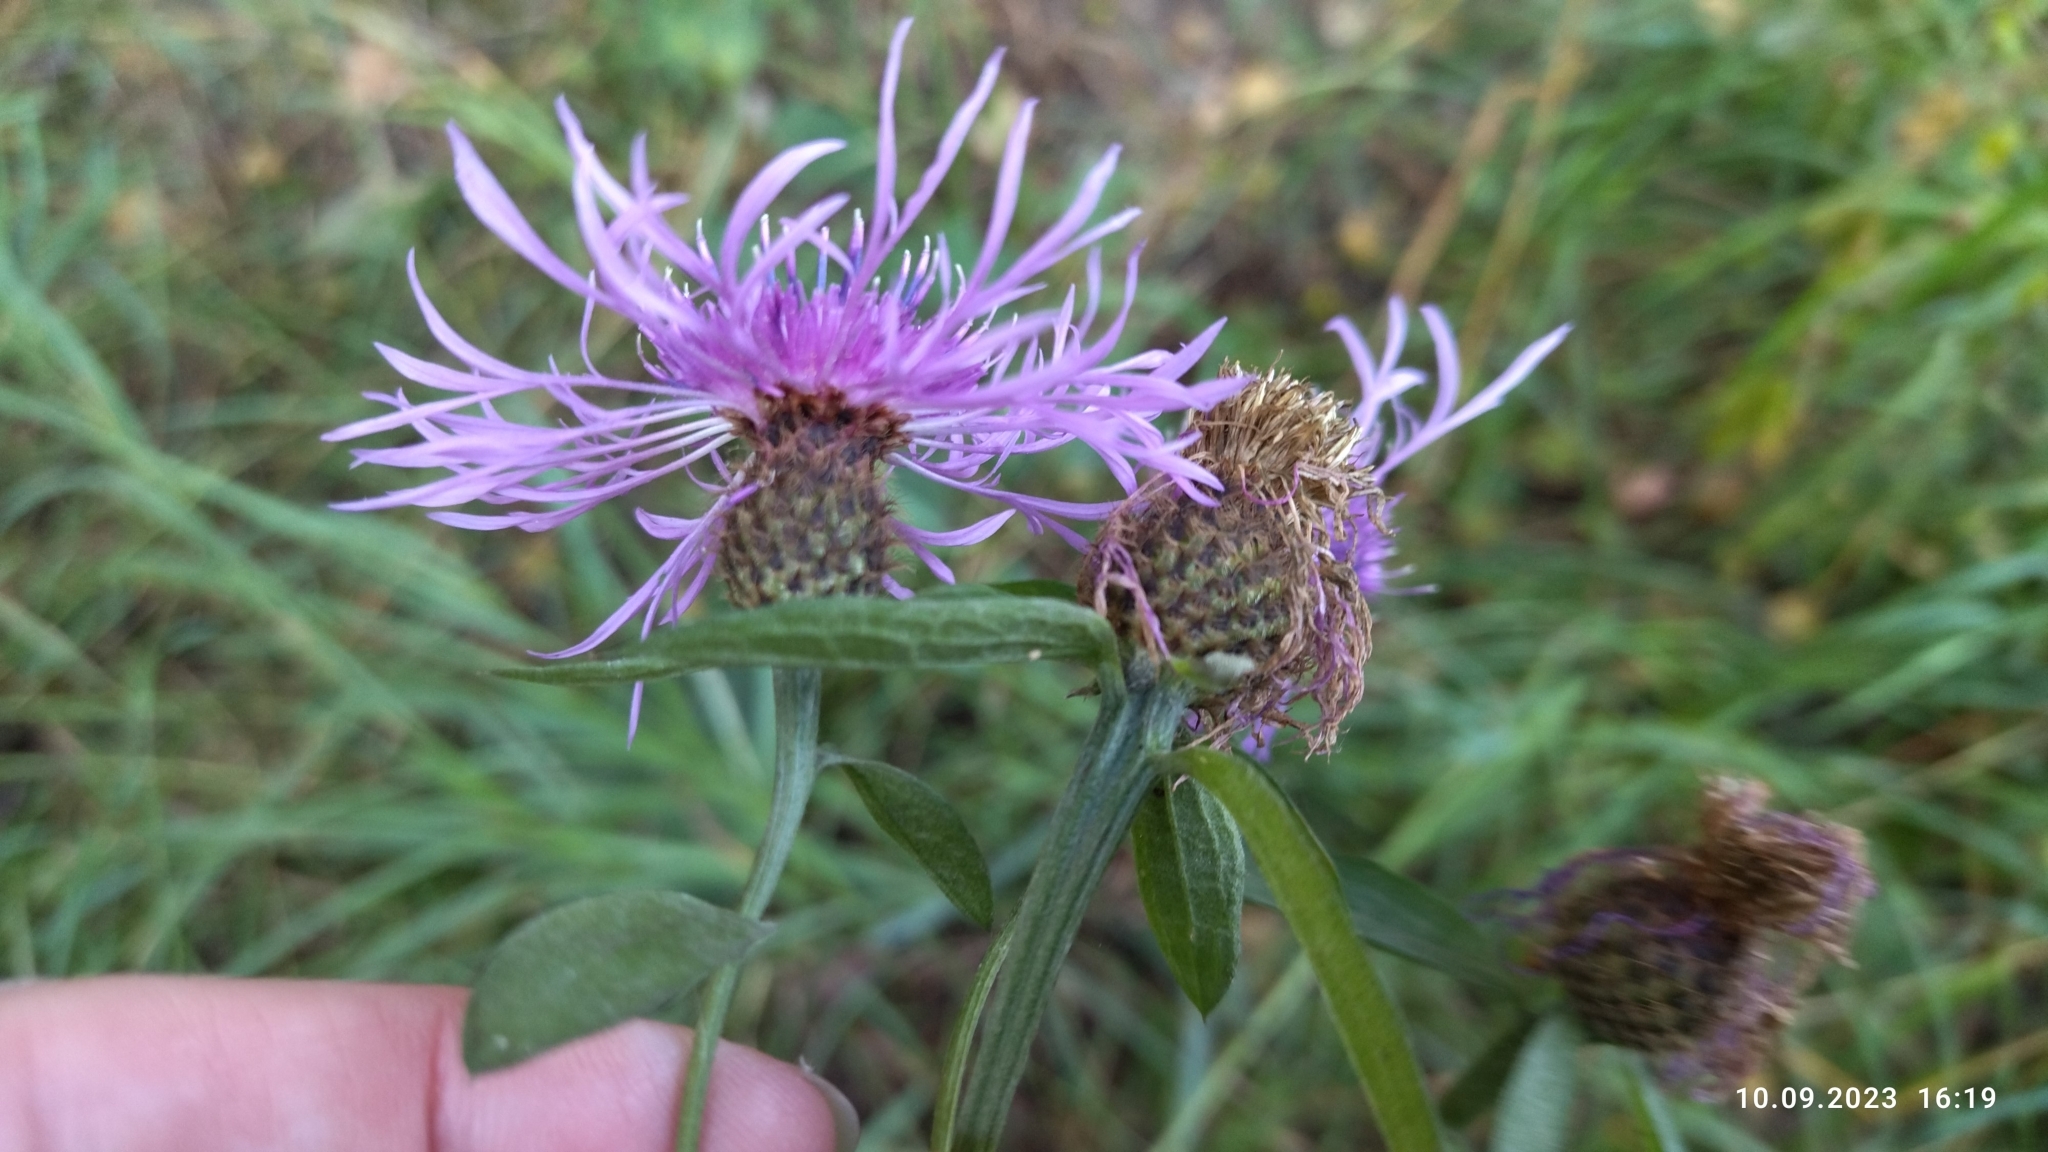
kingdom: Plantae
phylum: Tracheophyta
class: Magnoliopsida
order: Asterales
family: Asteraceae
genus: Centaurea
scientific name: Centaurea phrygia
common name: Wig knapweed
